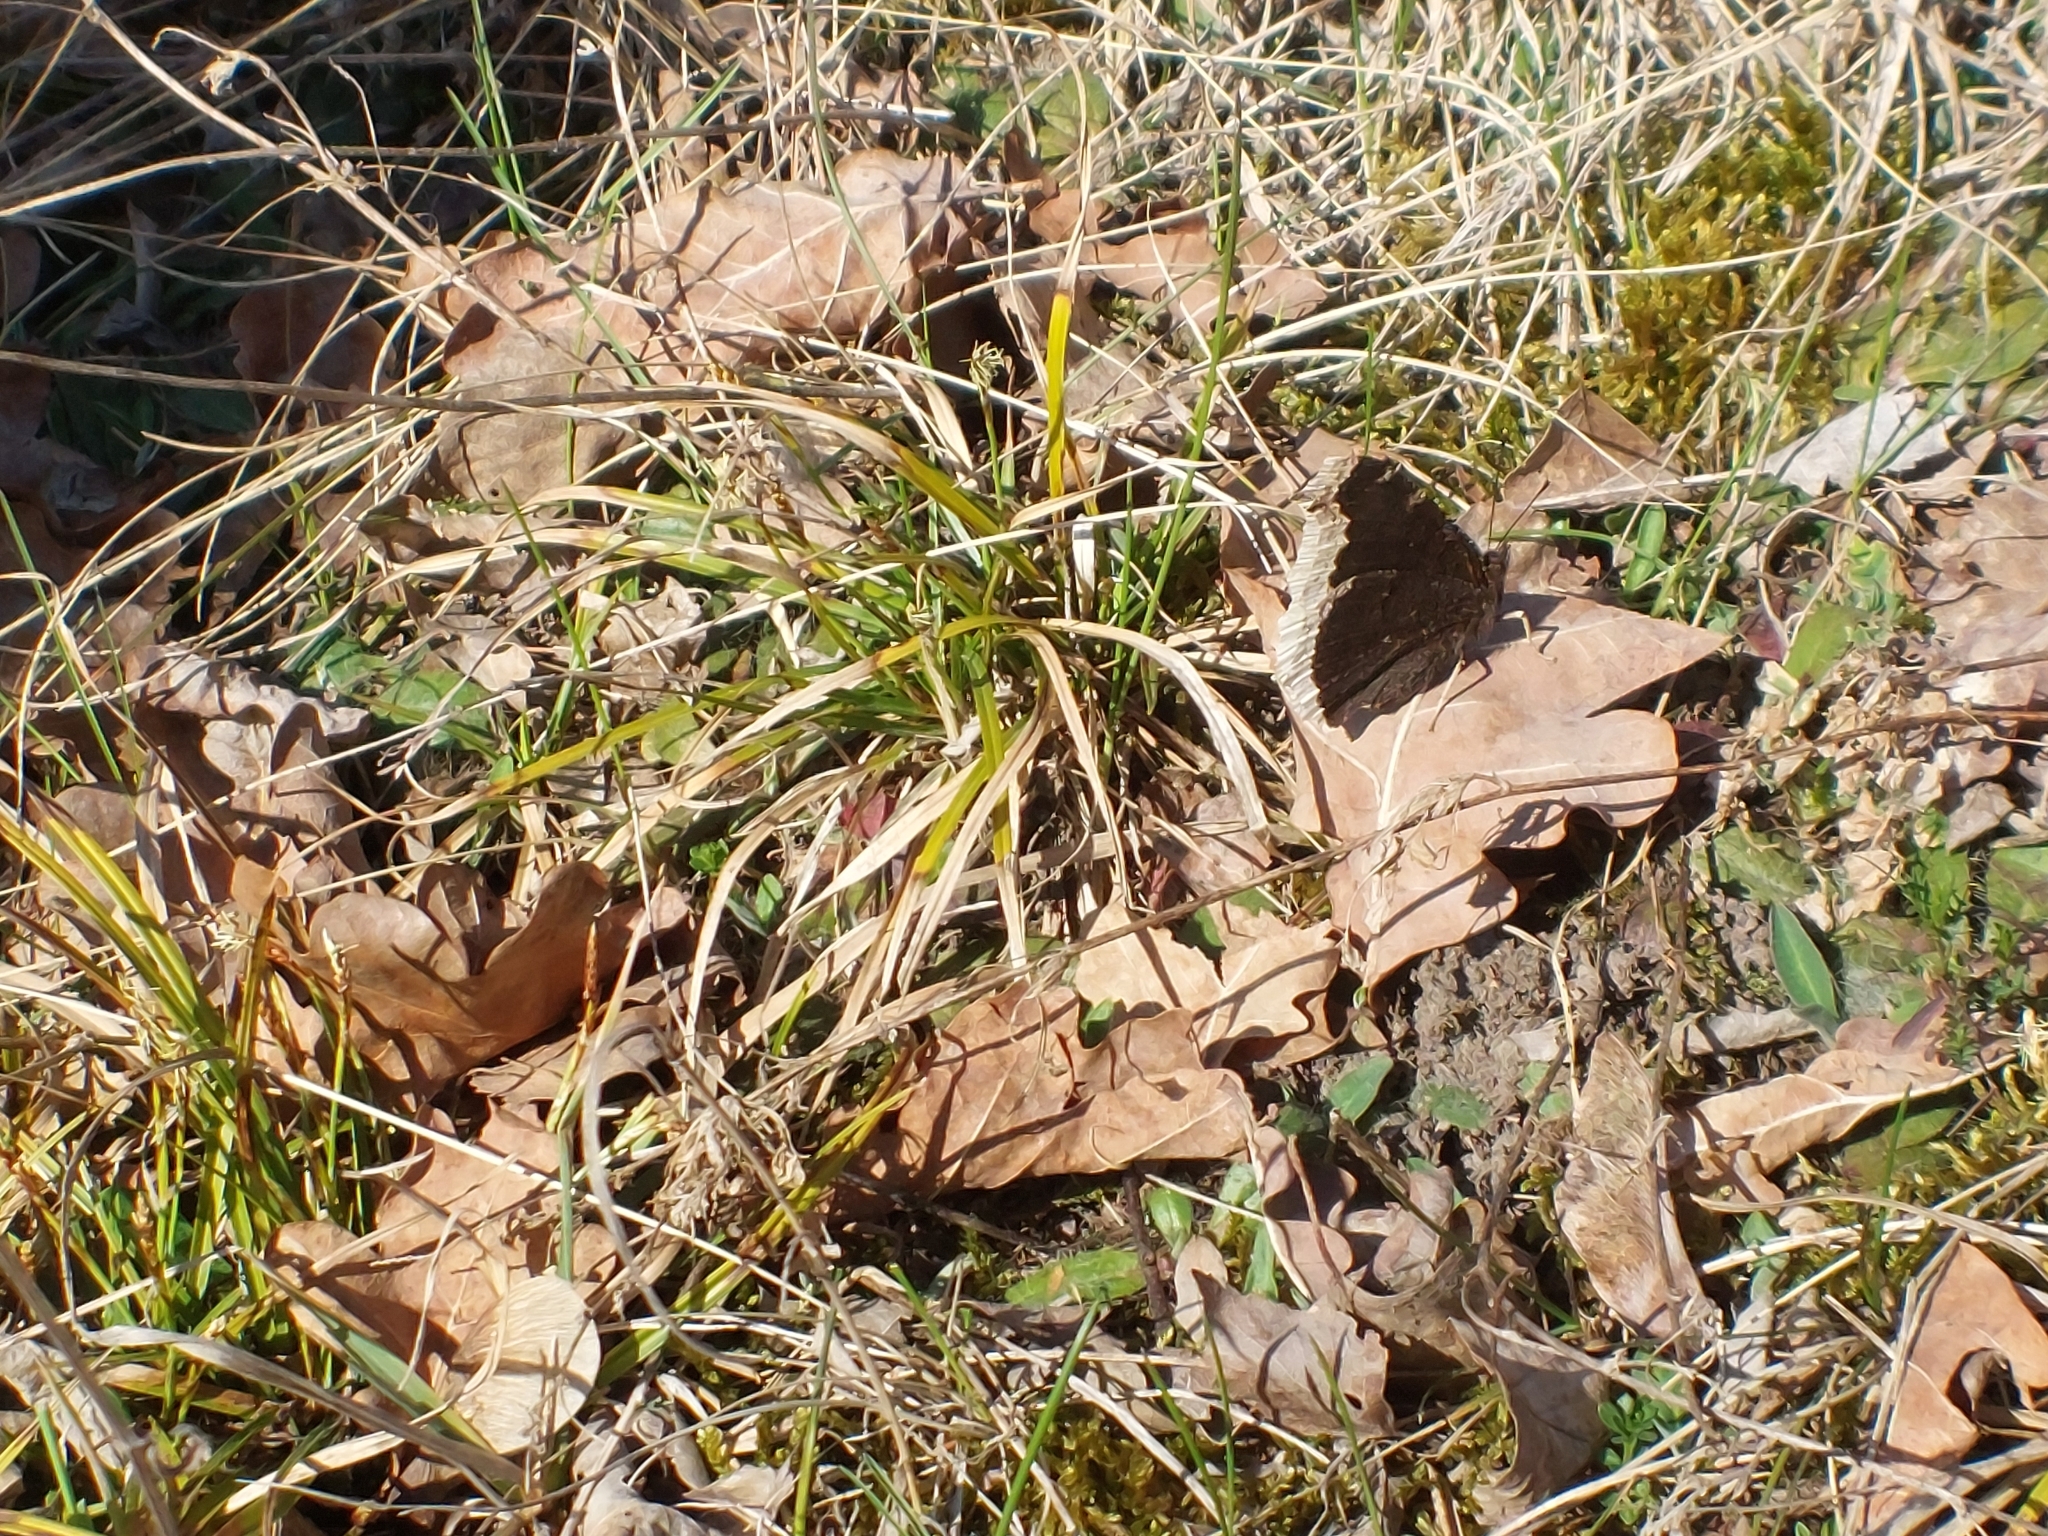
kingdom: Animalia
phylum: Arthropoda
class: Insecta
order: Lepidoptera
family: Nymphalidae
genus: Nymphalis
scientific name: Nymphalis antiopa
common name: Camberwell beauty
